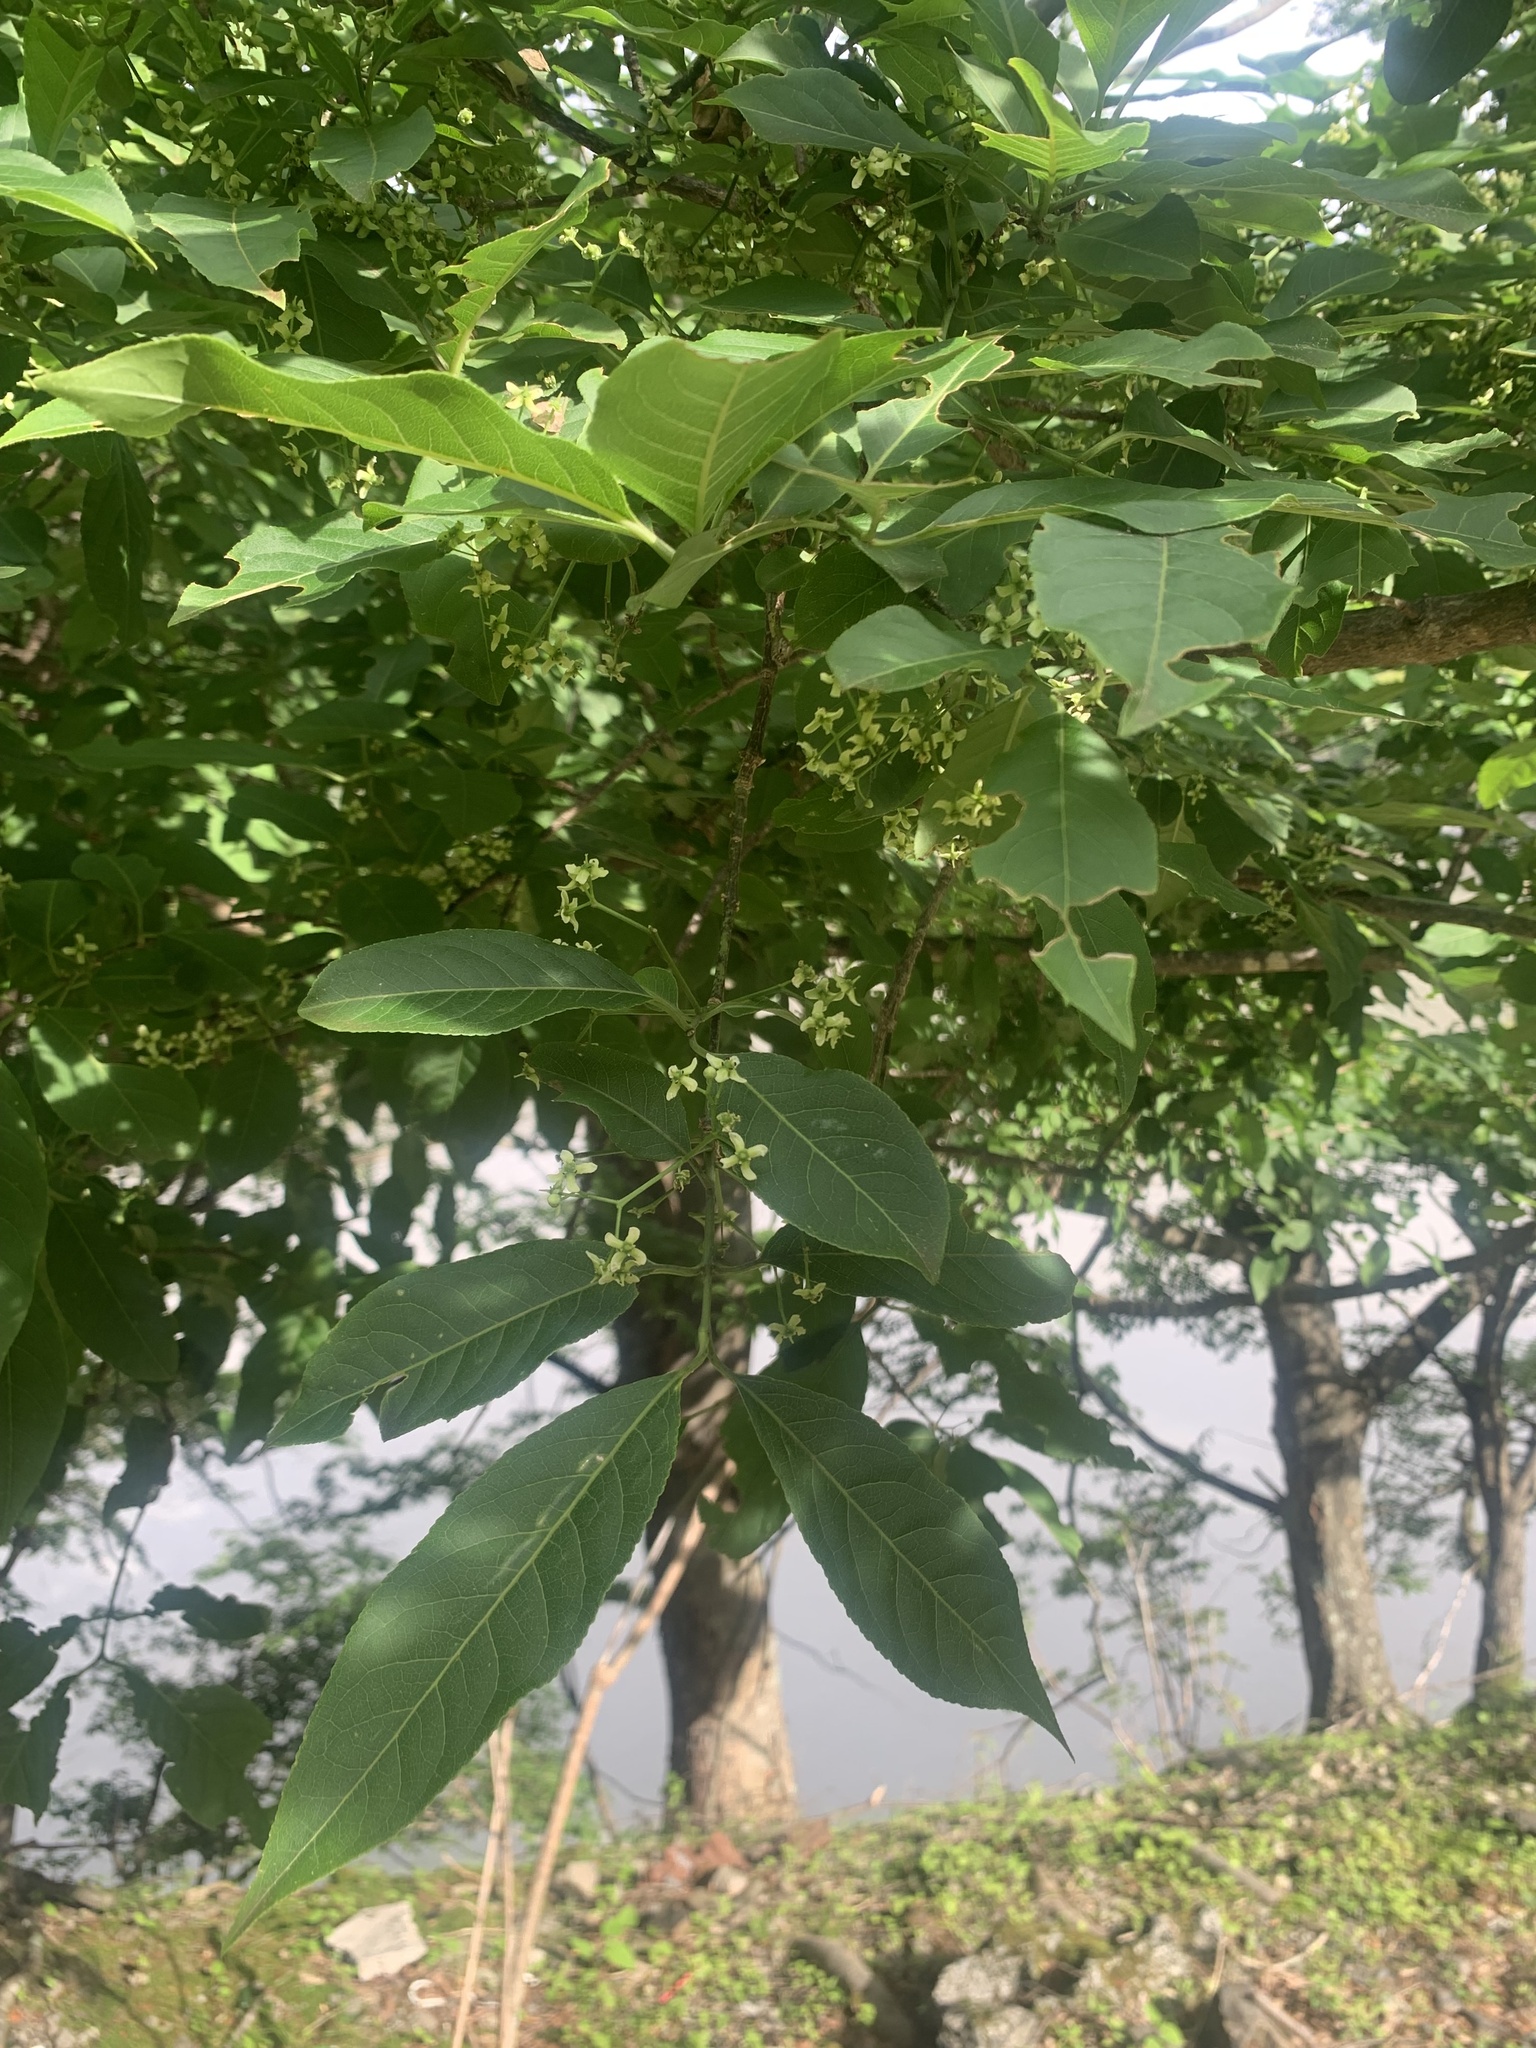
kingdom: Plantae
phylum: Tracheophyta
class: Magnoliopsida
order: Celastrales
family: Celastraceae
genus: Euonymus
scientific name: Euonymus hamiltonianus
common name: Hamilton's spindletree
